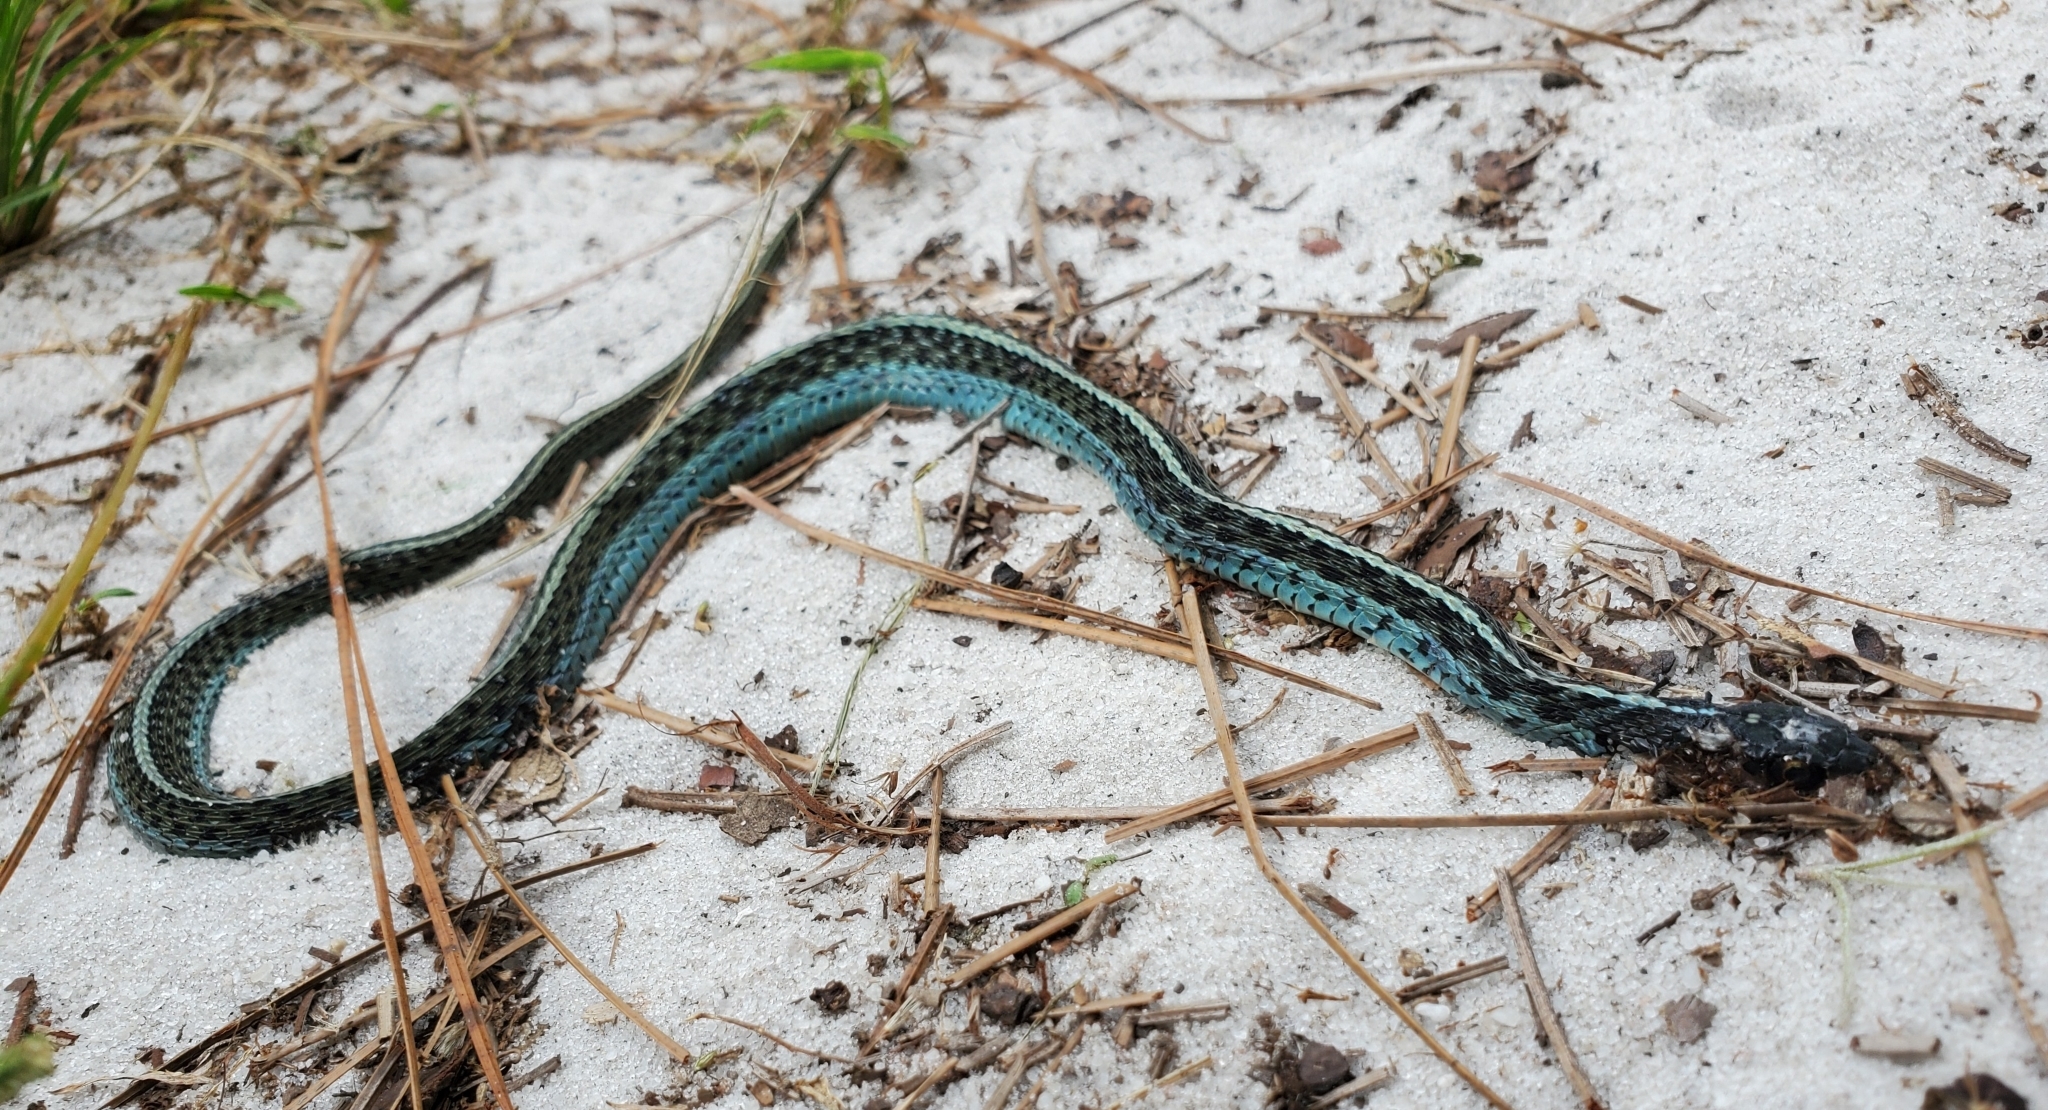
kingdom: Animalia
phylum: Chordata
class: Squamata
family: Colubridae
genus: Thamnophis
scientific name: Thamnophis sirtalis
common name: Common garter snake
